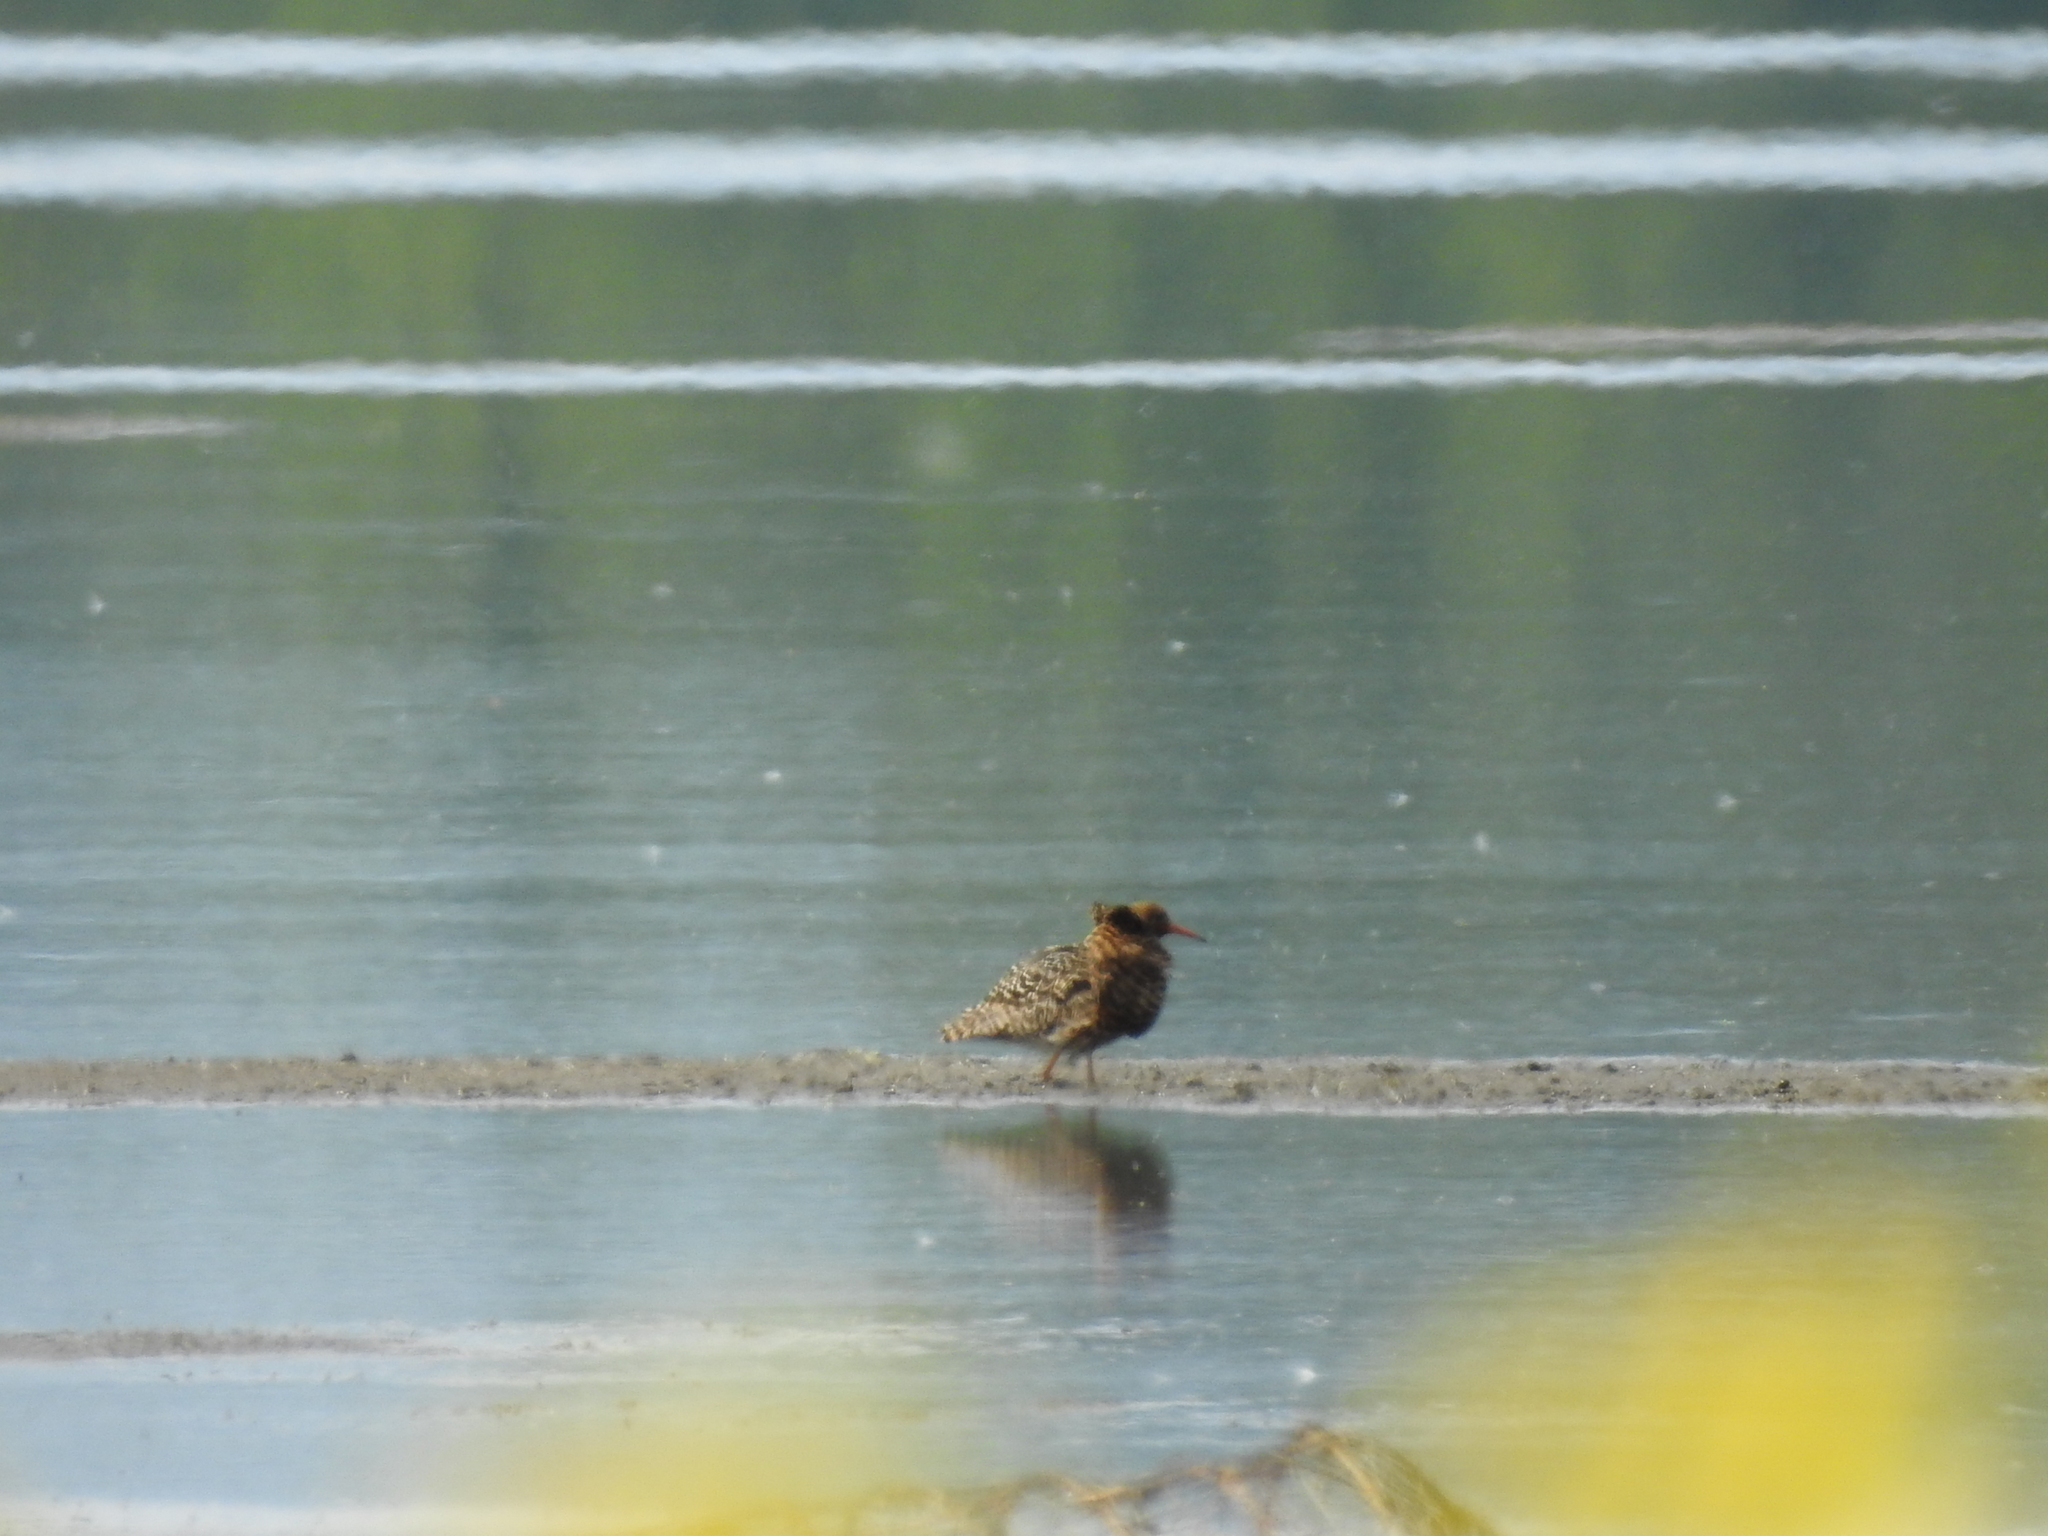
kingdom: Animalia
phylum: Chordata
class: Aves
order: Charadriiformes
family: Scolopacidae
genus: Calidris
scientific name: Calidris pugnax
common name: Ruff
